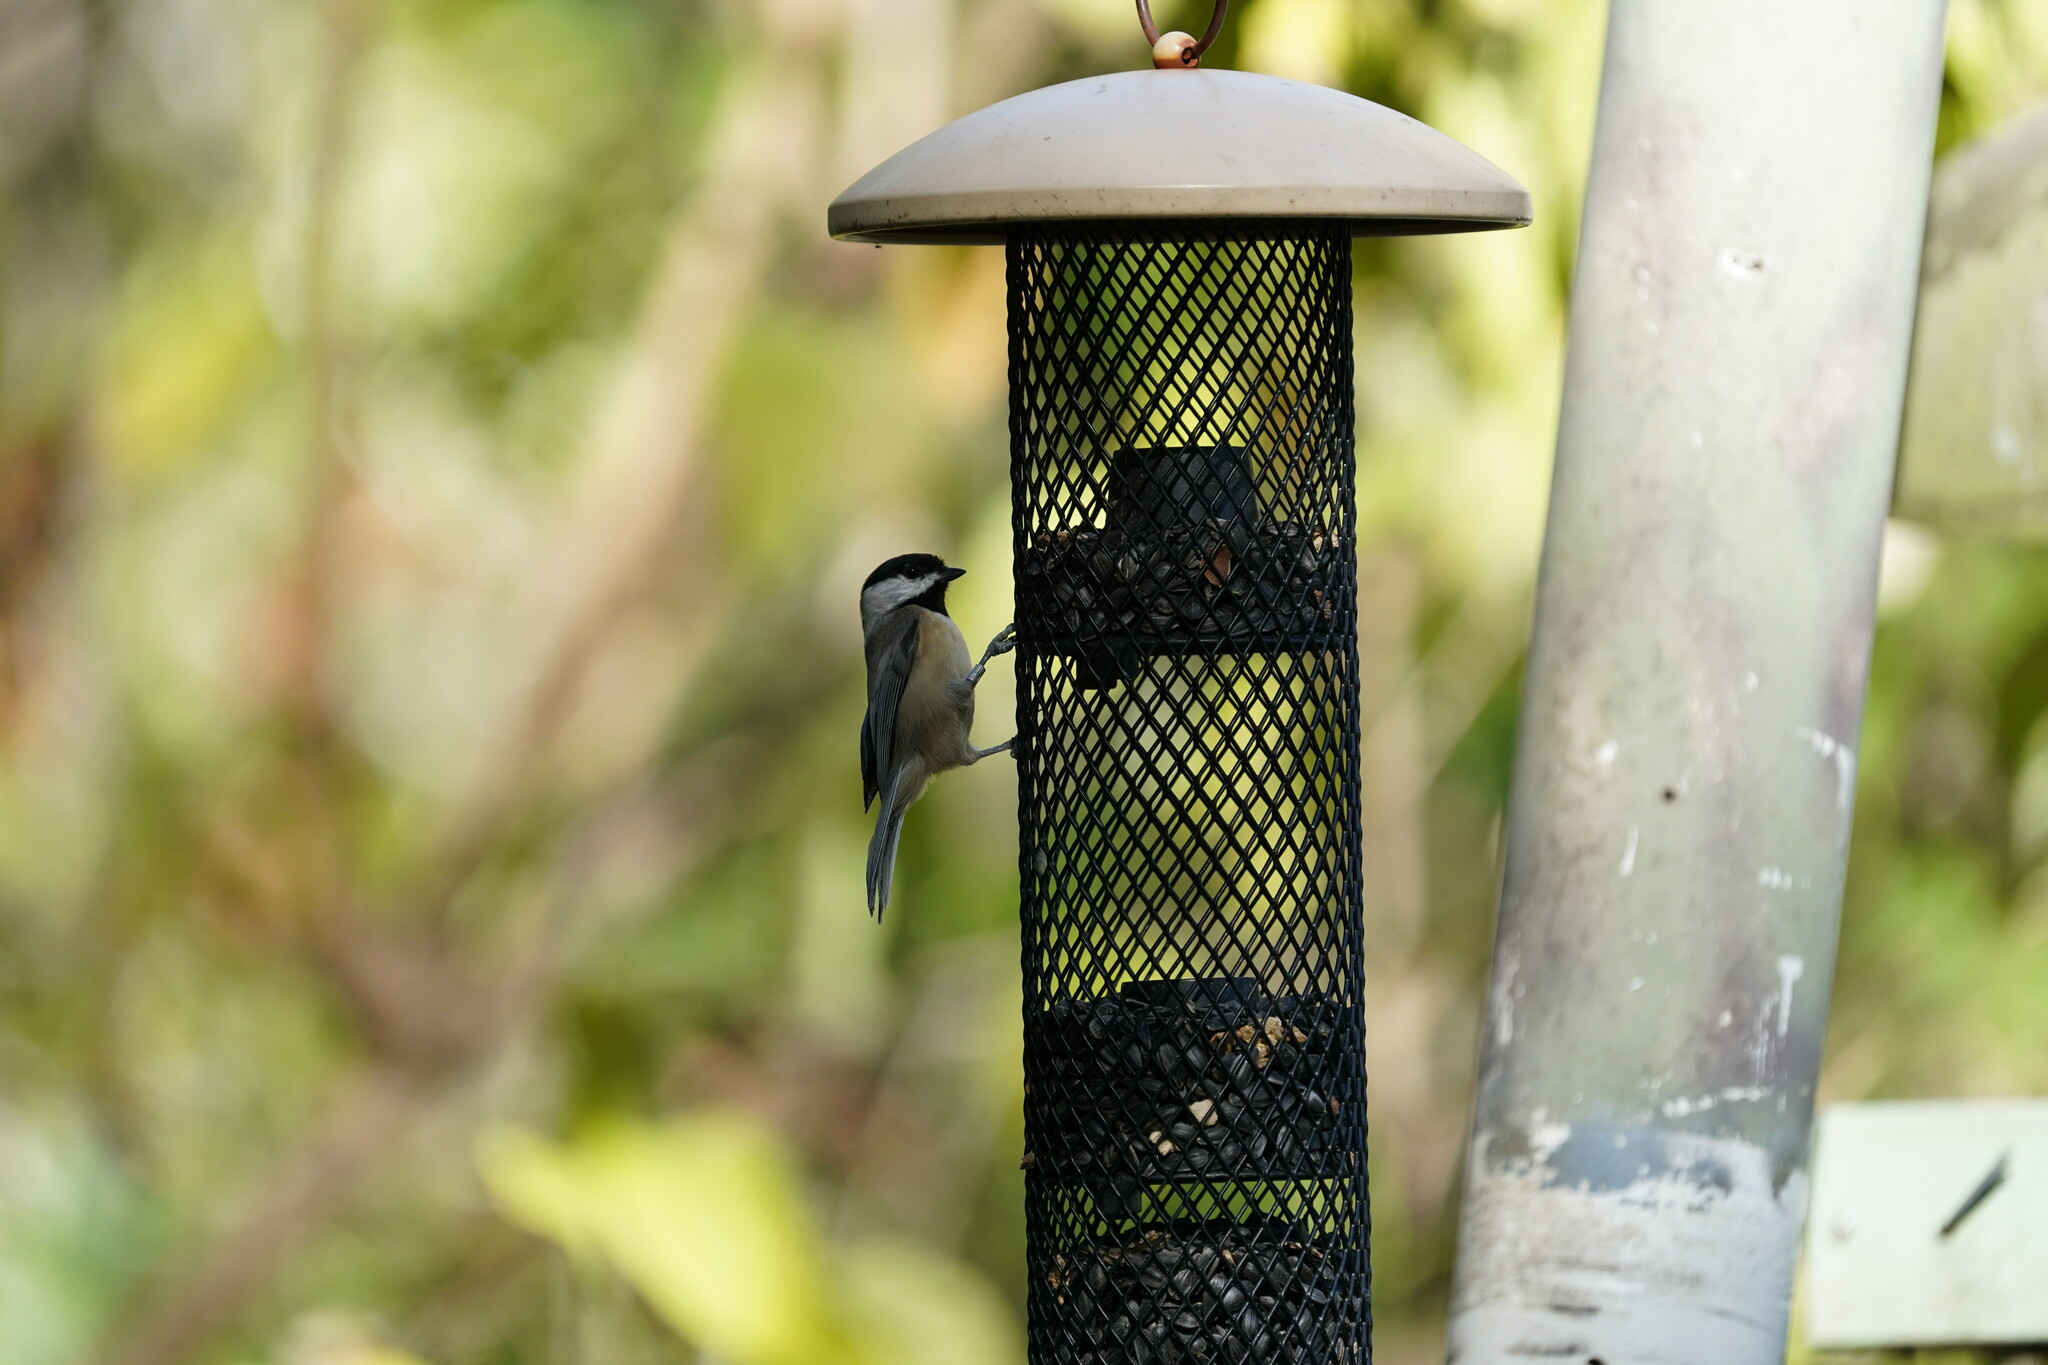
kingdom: Animalia
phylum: Chordata
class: Aves
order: Passeriformes
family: Paridae
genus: Poecile
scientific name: Poecile carolinensis
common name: Carolina chickadee
